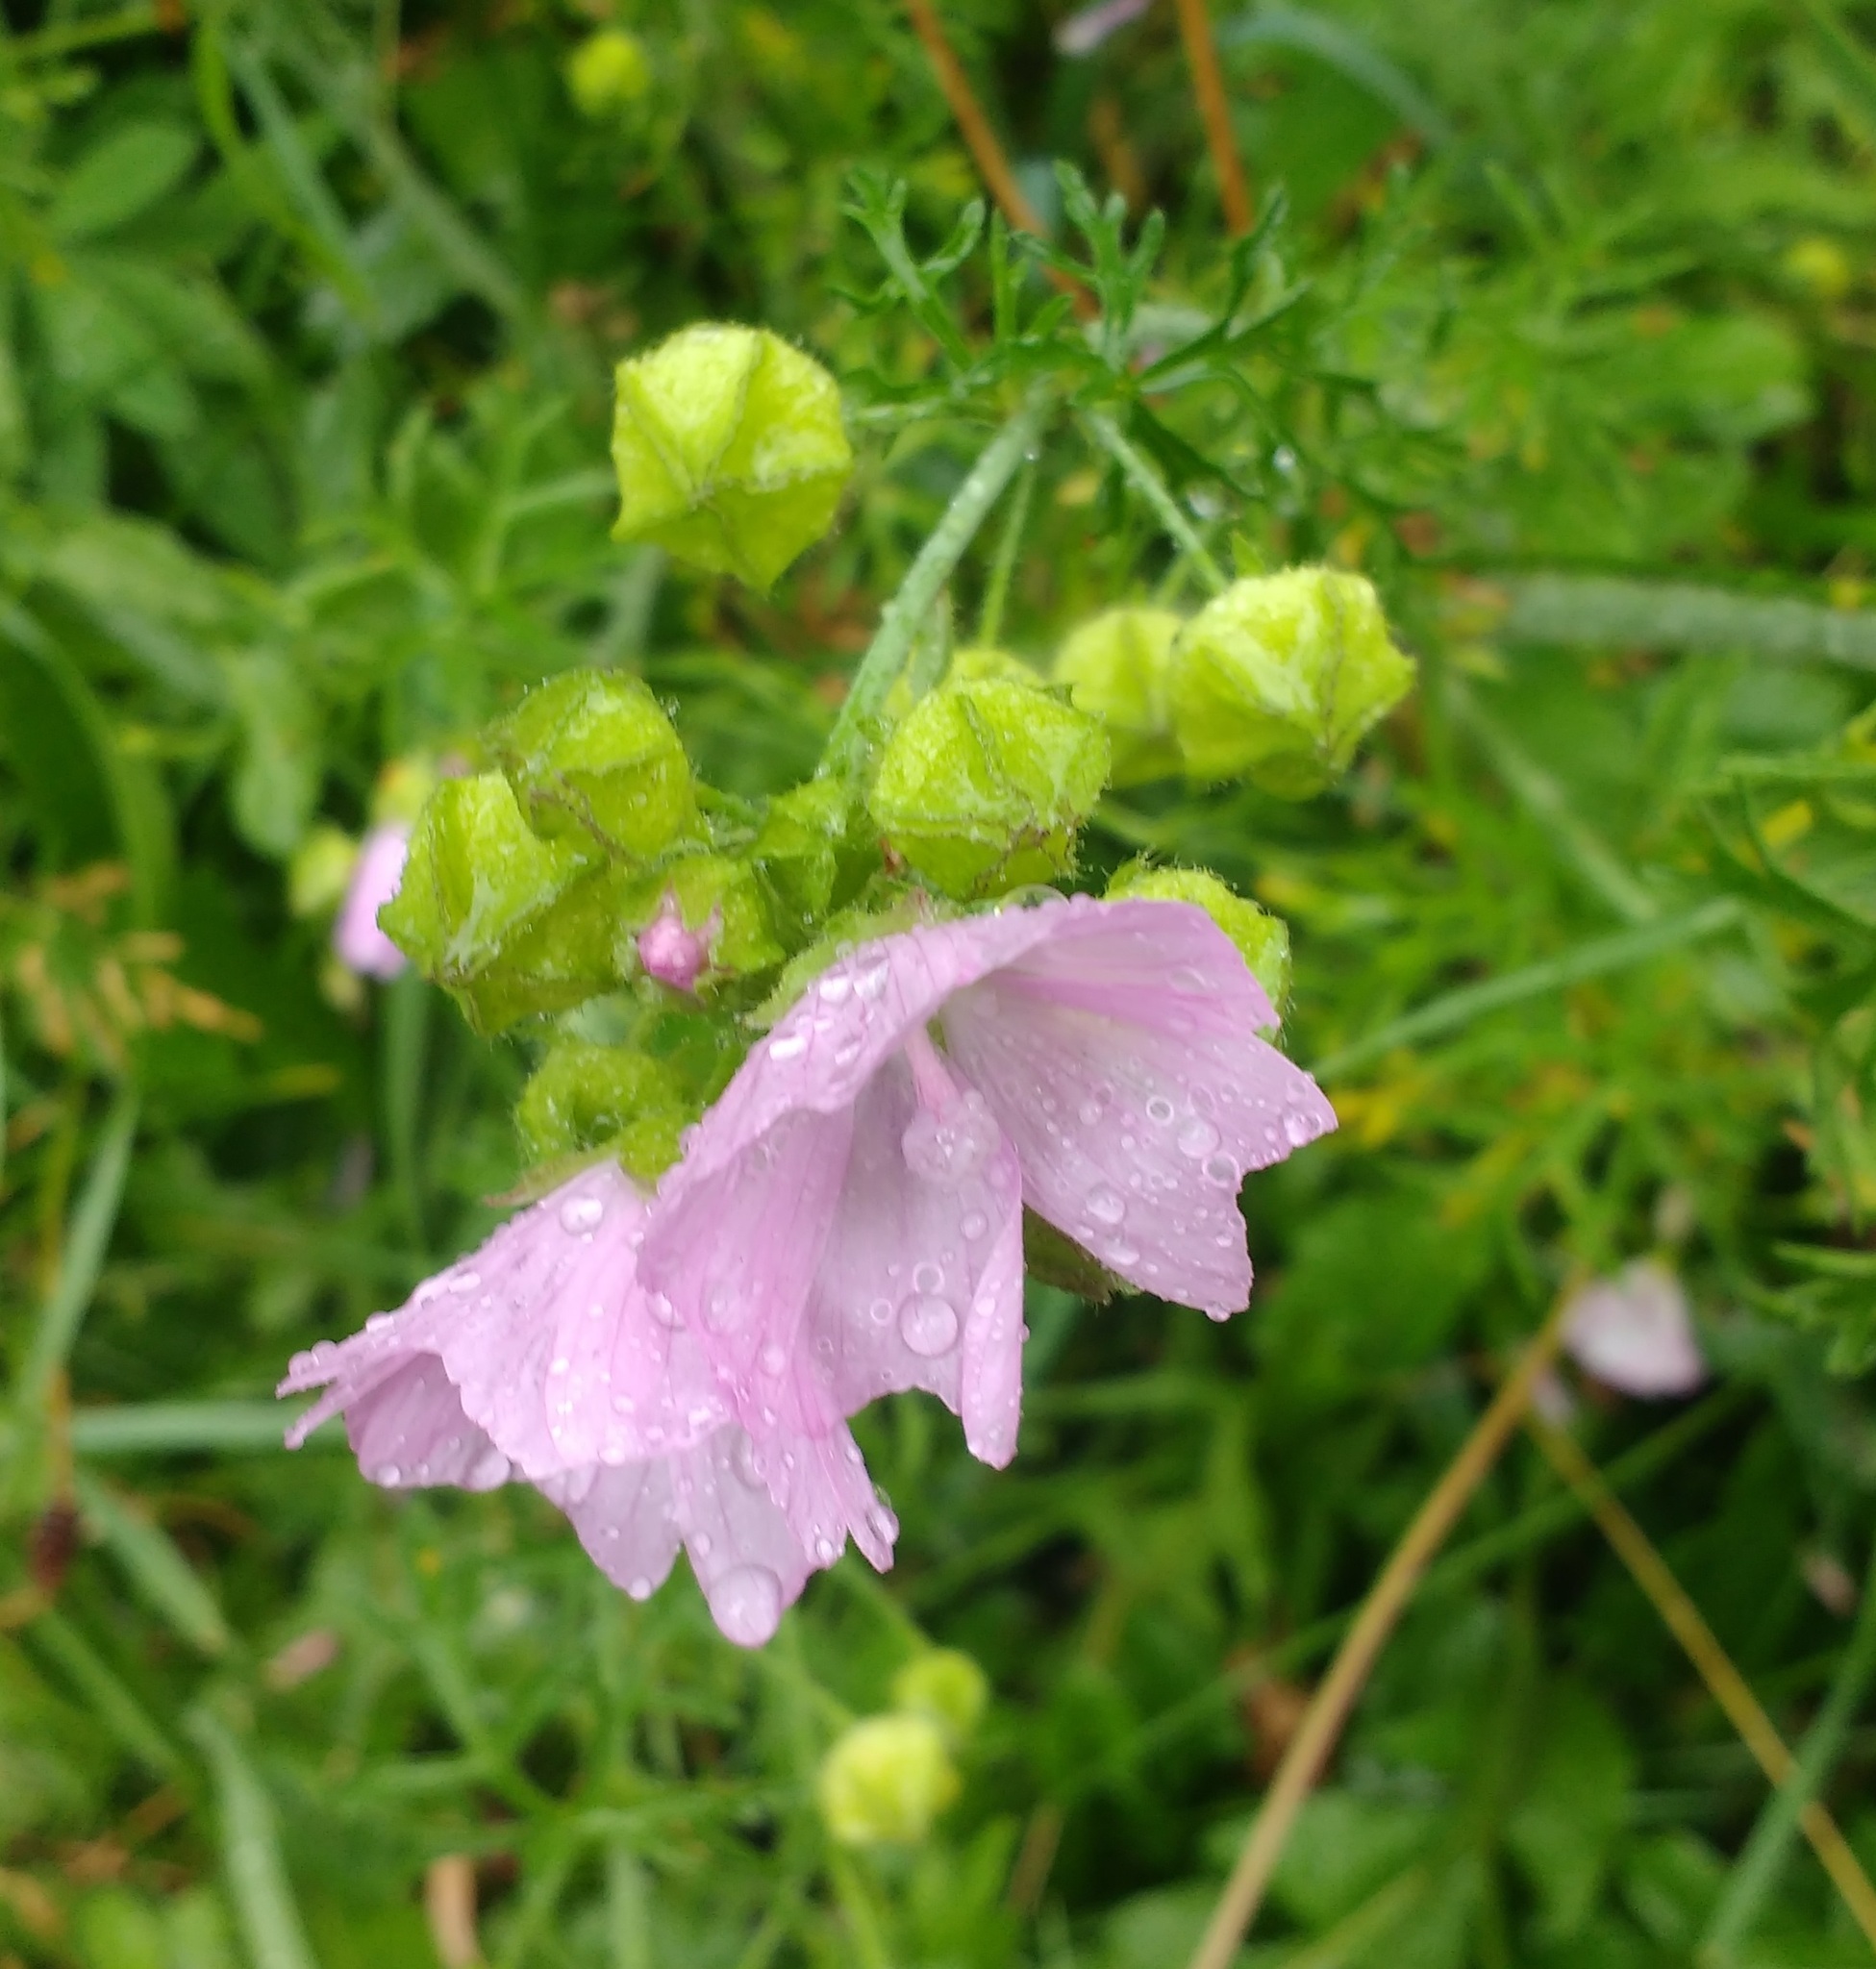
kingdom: Plantae
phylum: Tracheophyta
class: Magnoliopsida
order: Malvales
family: Malvaceae
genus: Malva
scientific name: Malva moschata
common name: Musk mallow
